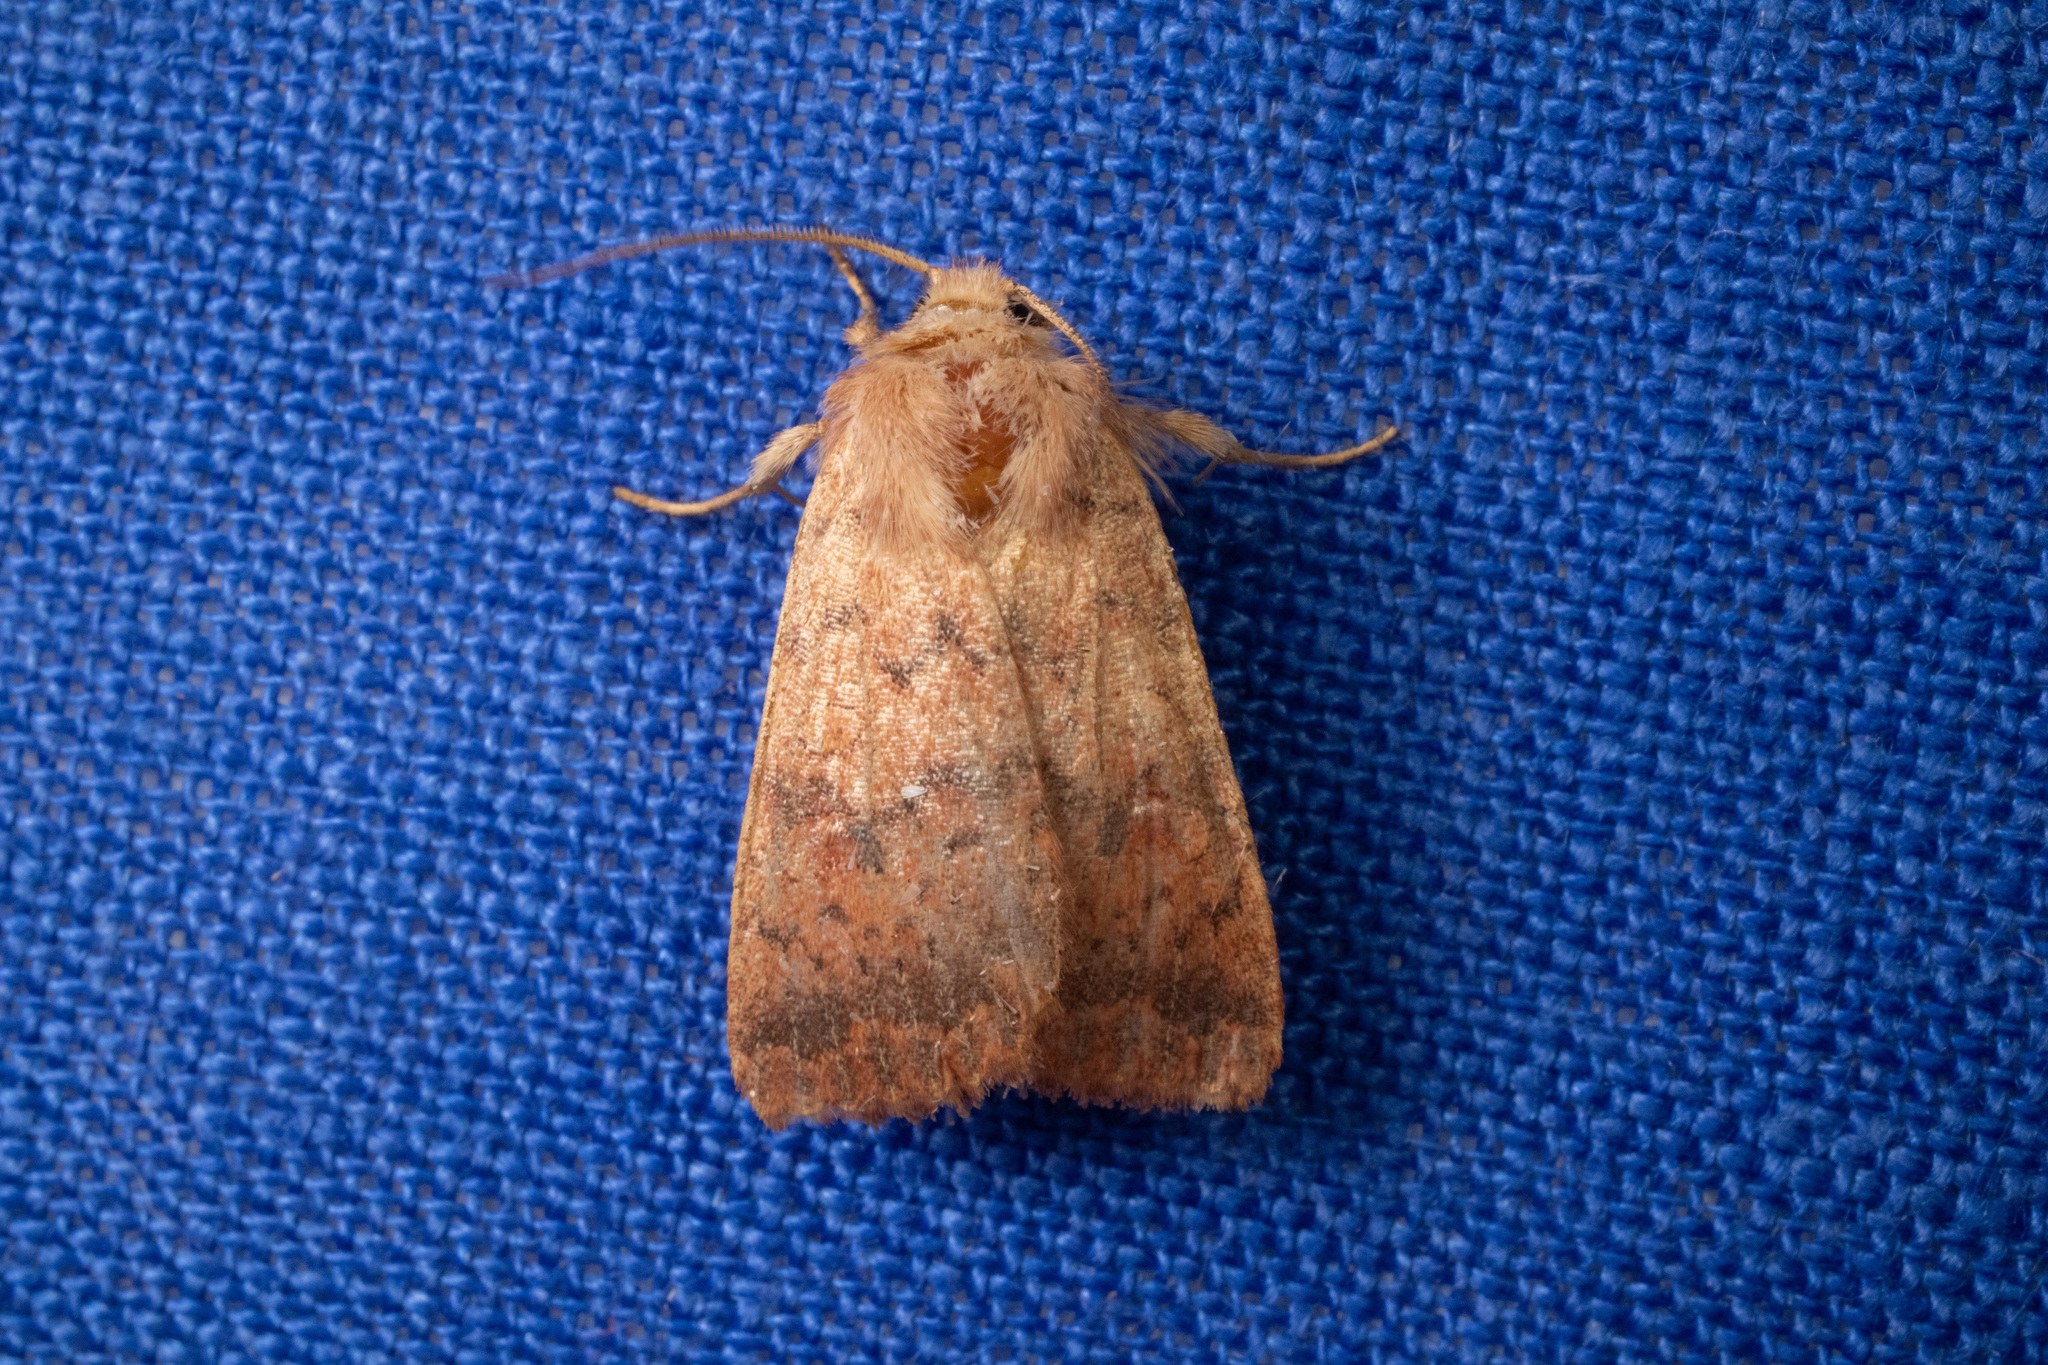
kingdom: Animalia
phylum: Arthropoda
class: Insecta
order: Lepidoptera
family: Noctuidae
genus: Agrochola
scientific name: Agrochola bicolorago
